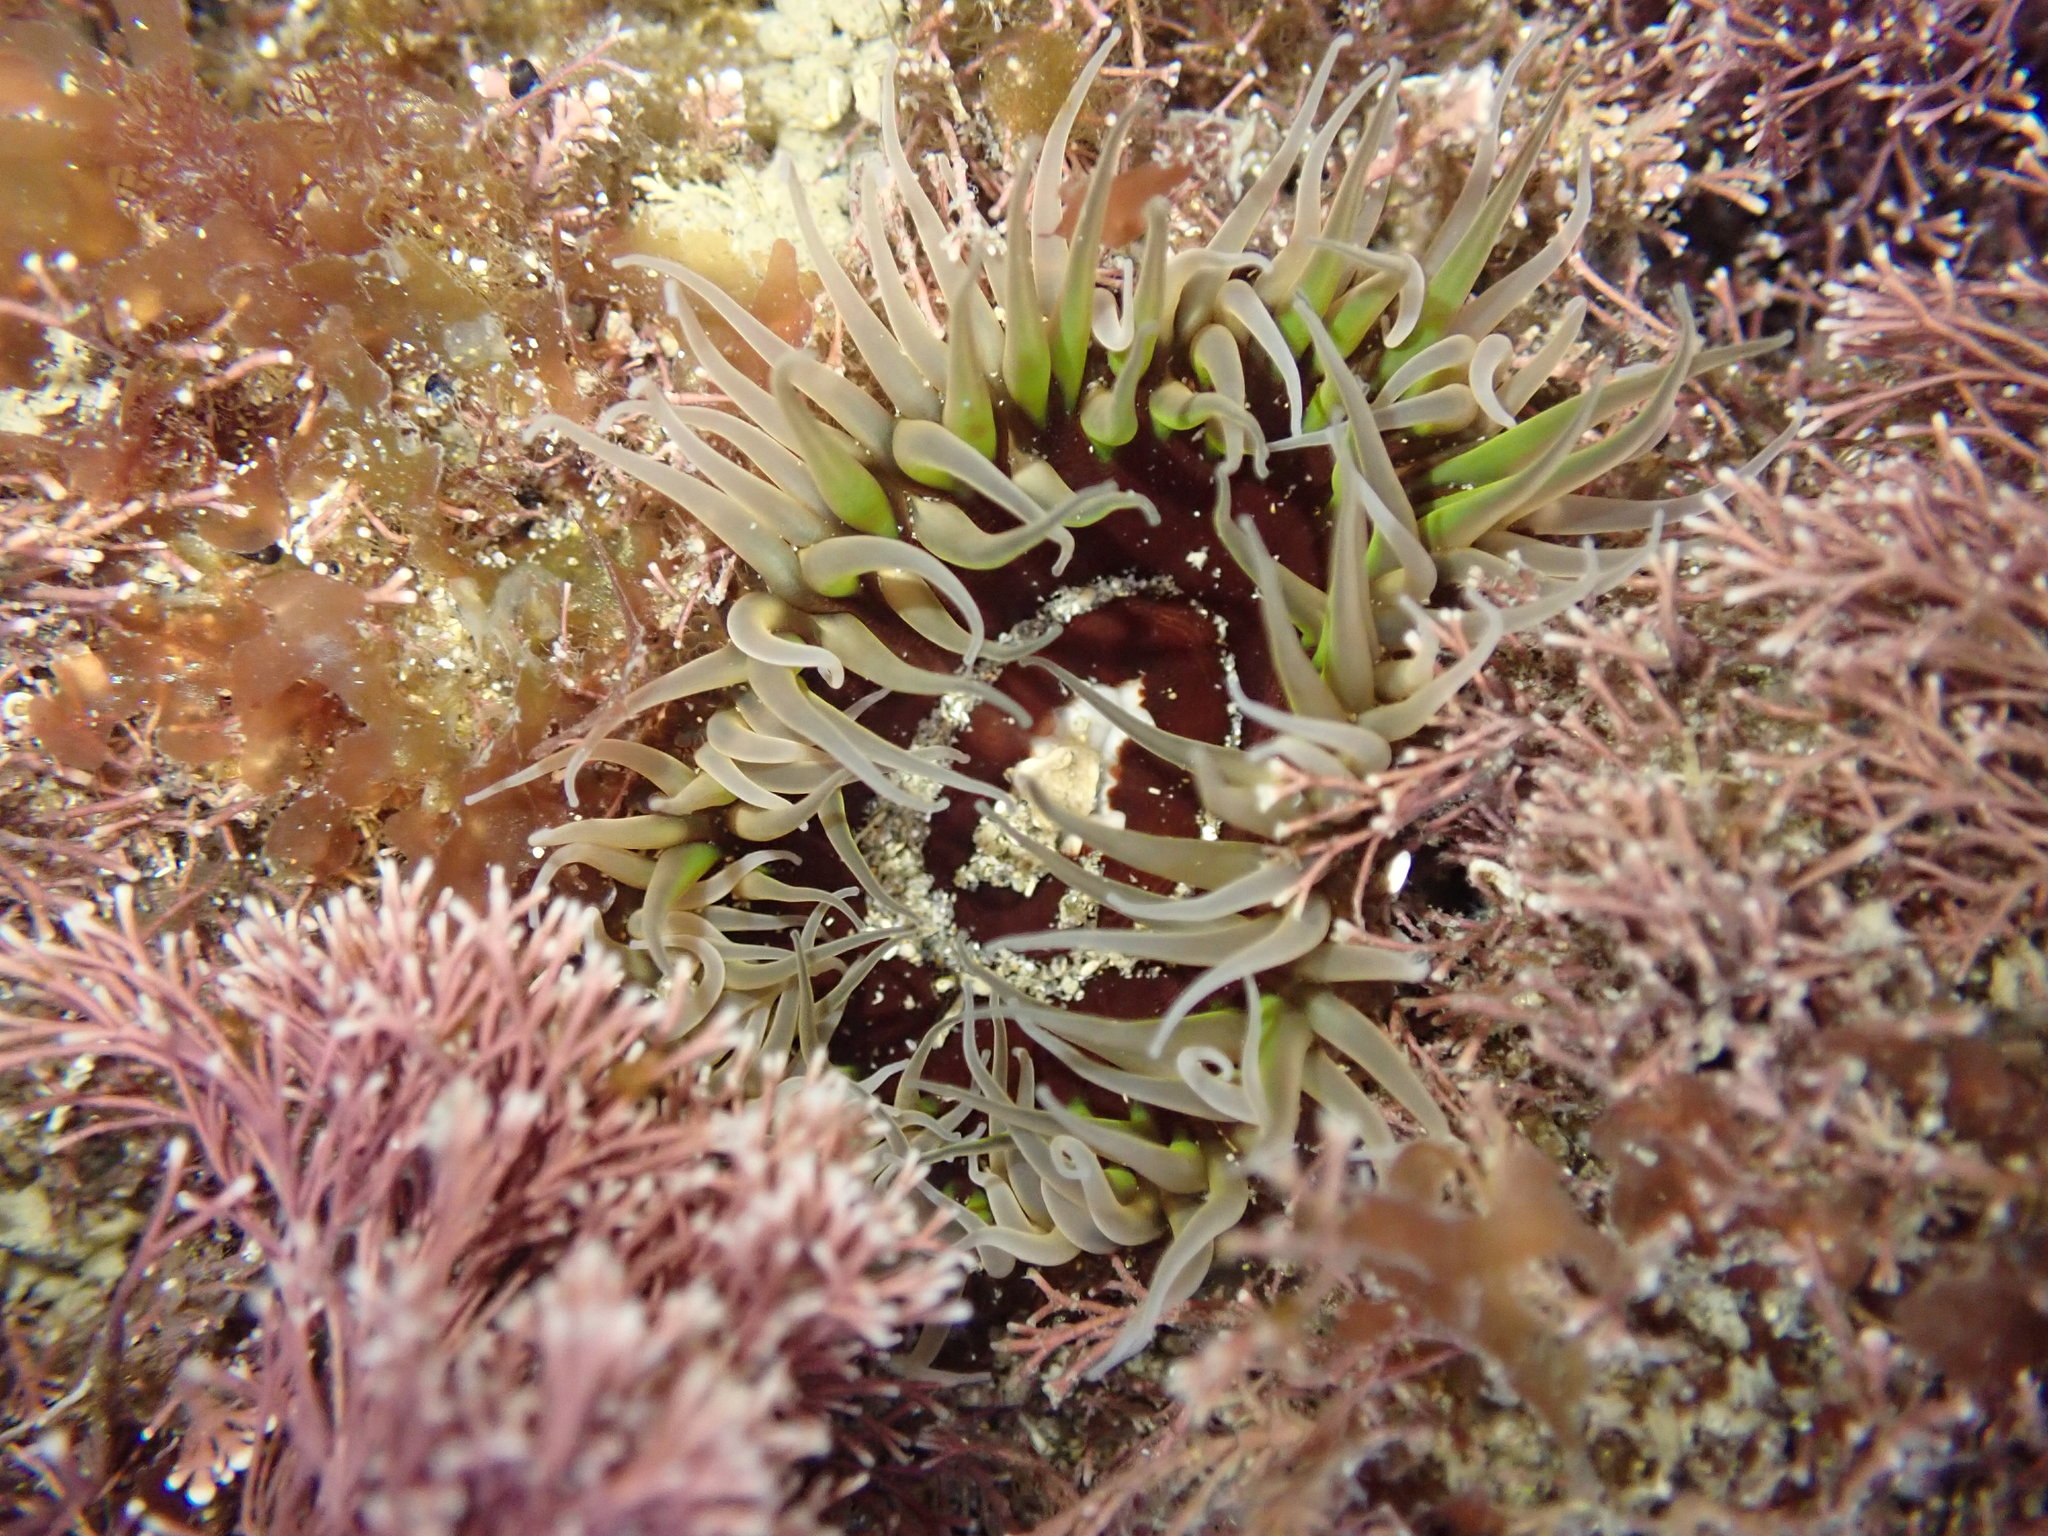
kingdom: Animalia
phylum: Cnidaria
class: Anthozoa
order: Actiniaria
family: Actiniidae
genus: Oulactis
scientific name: Oulactis magna
